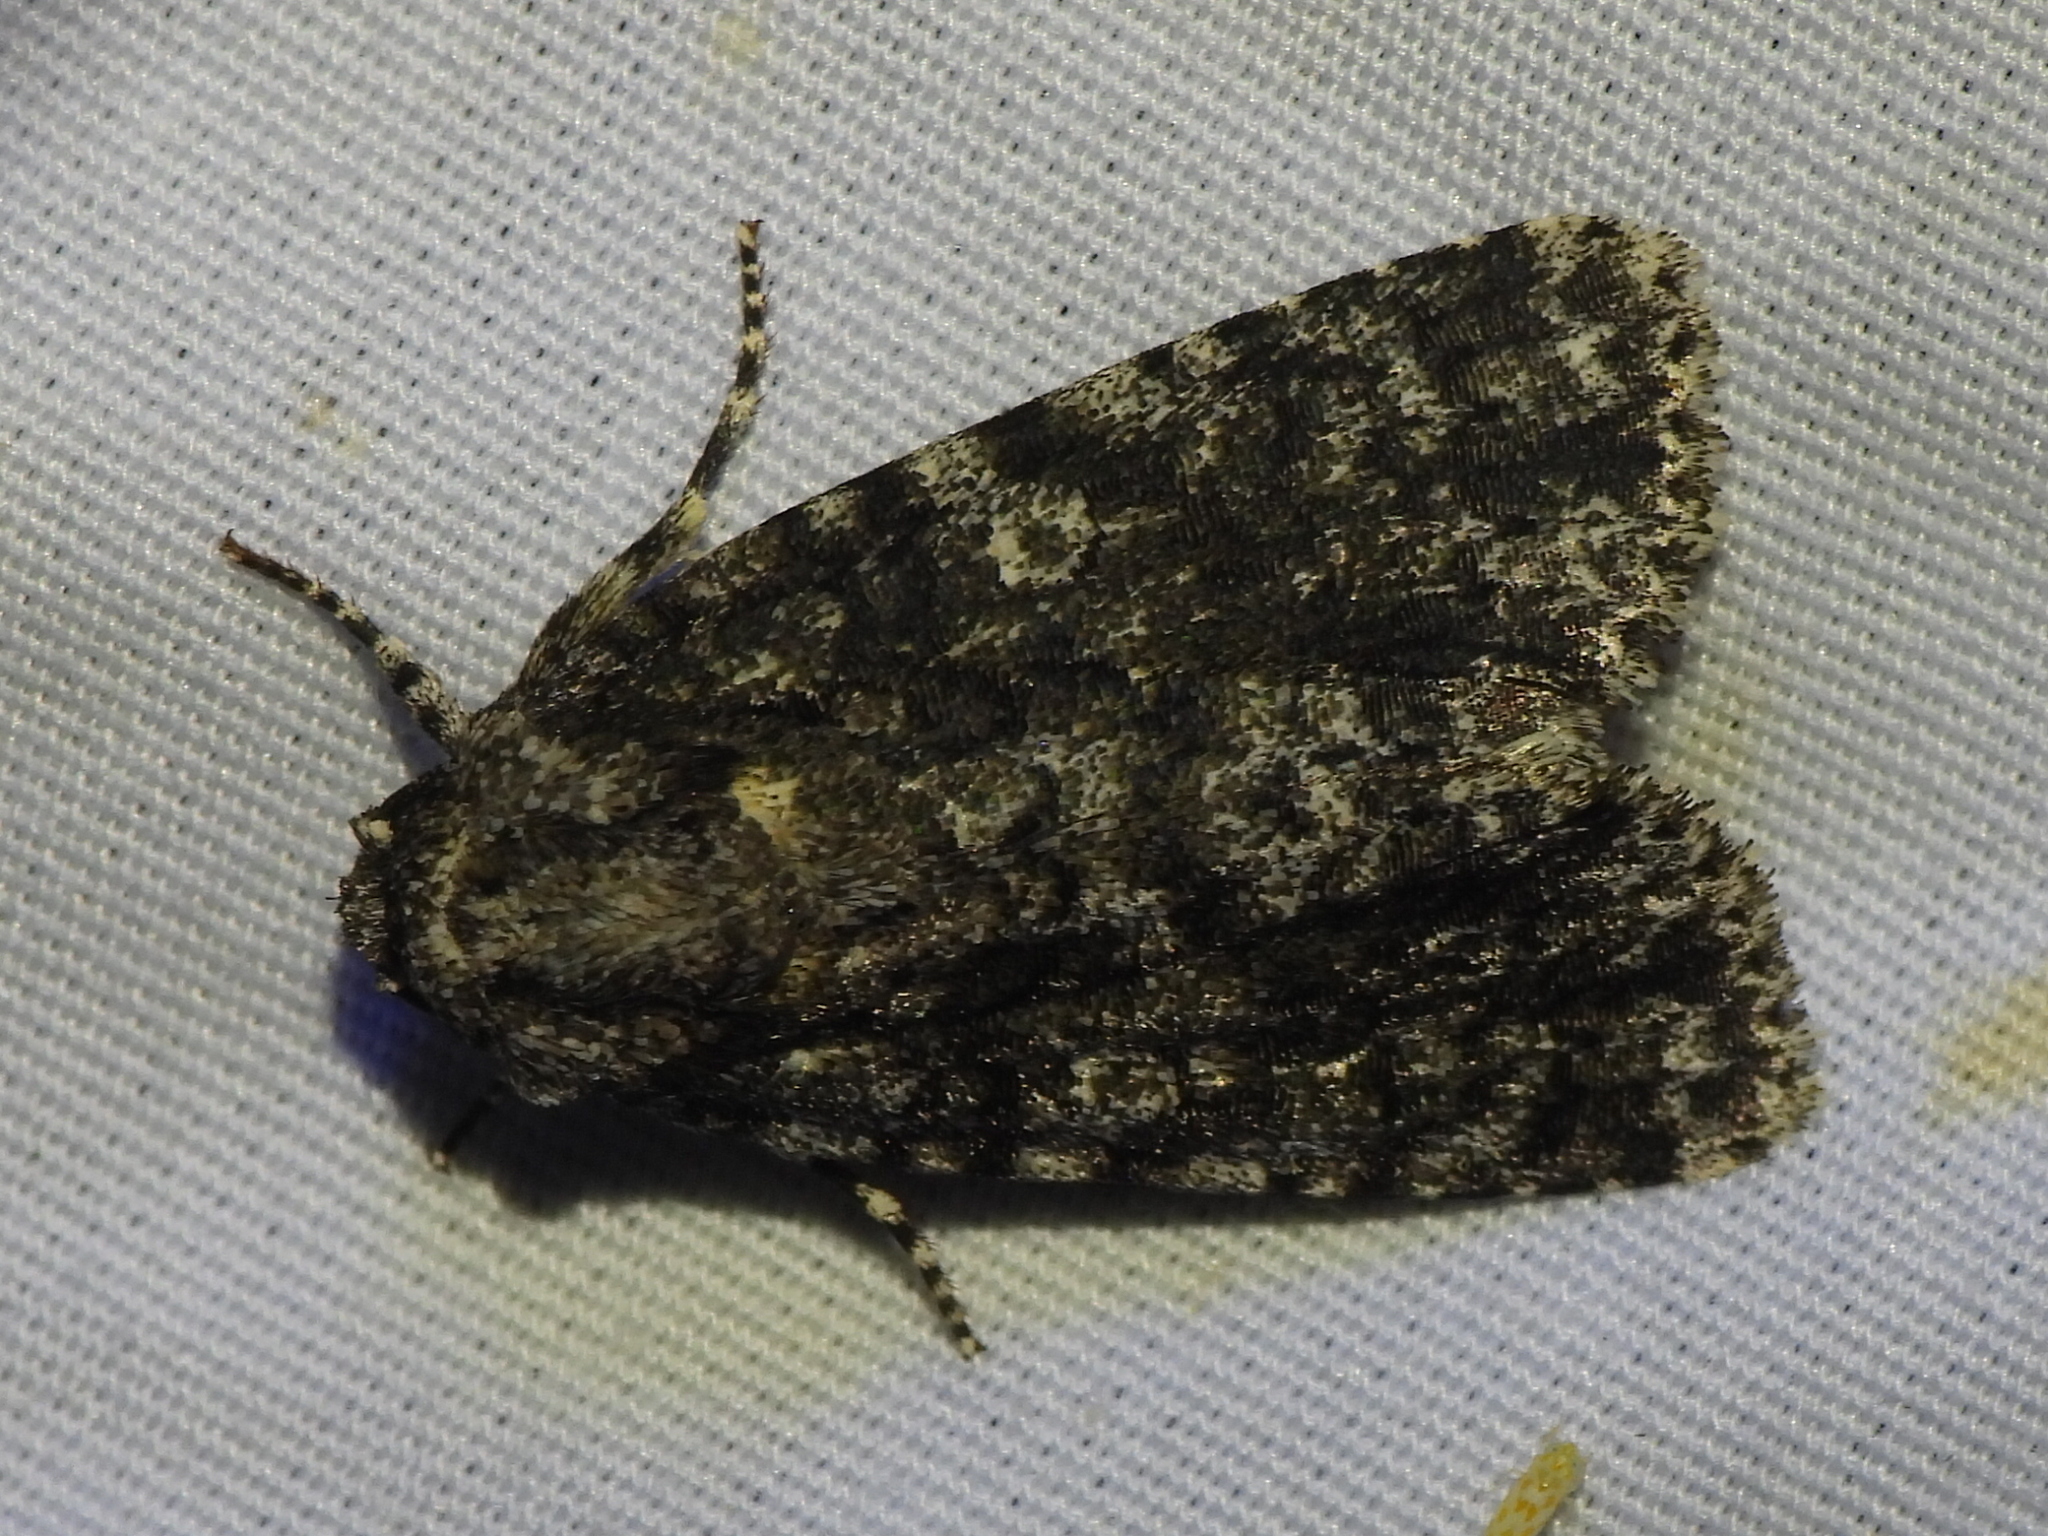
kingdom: Animalia
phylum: Arthropoda
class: Insecta
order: Lepidoptera
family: Noctuidae
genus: Acronicta
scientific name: Acronicta afflicta
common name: Afflicted dagger moth
